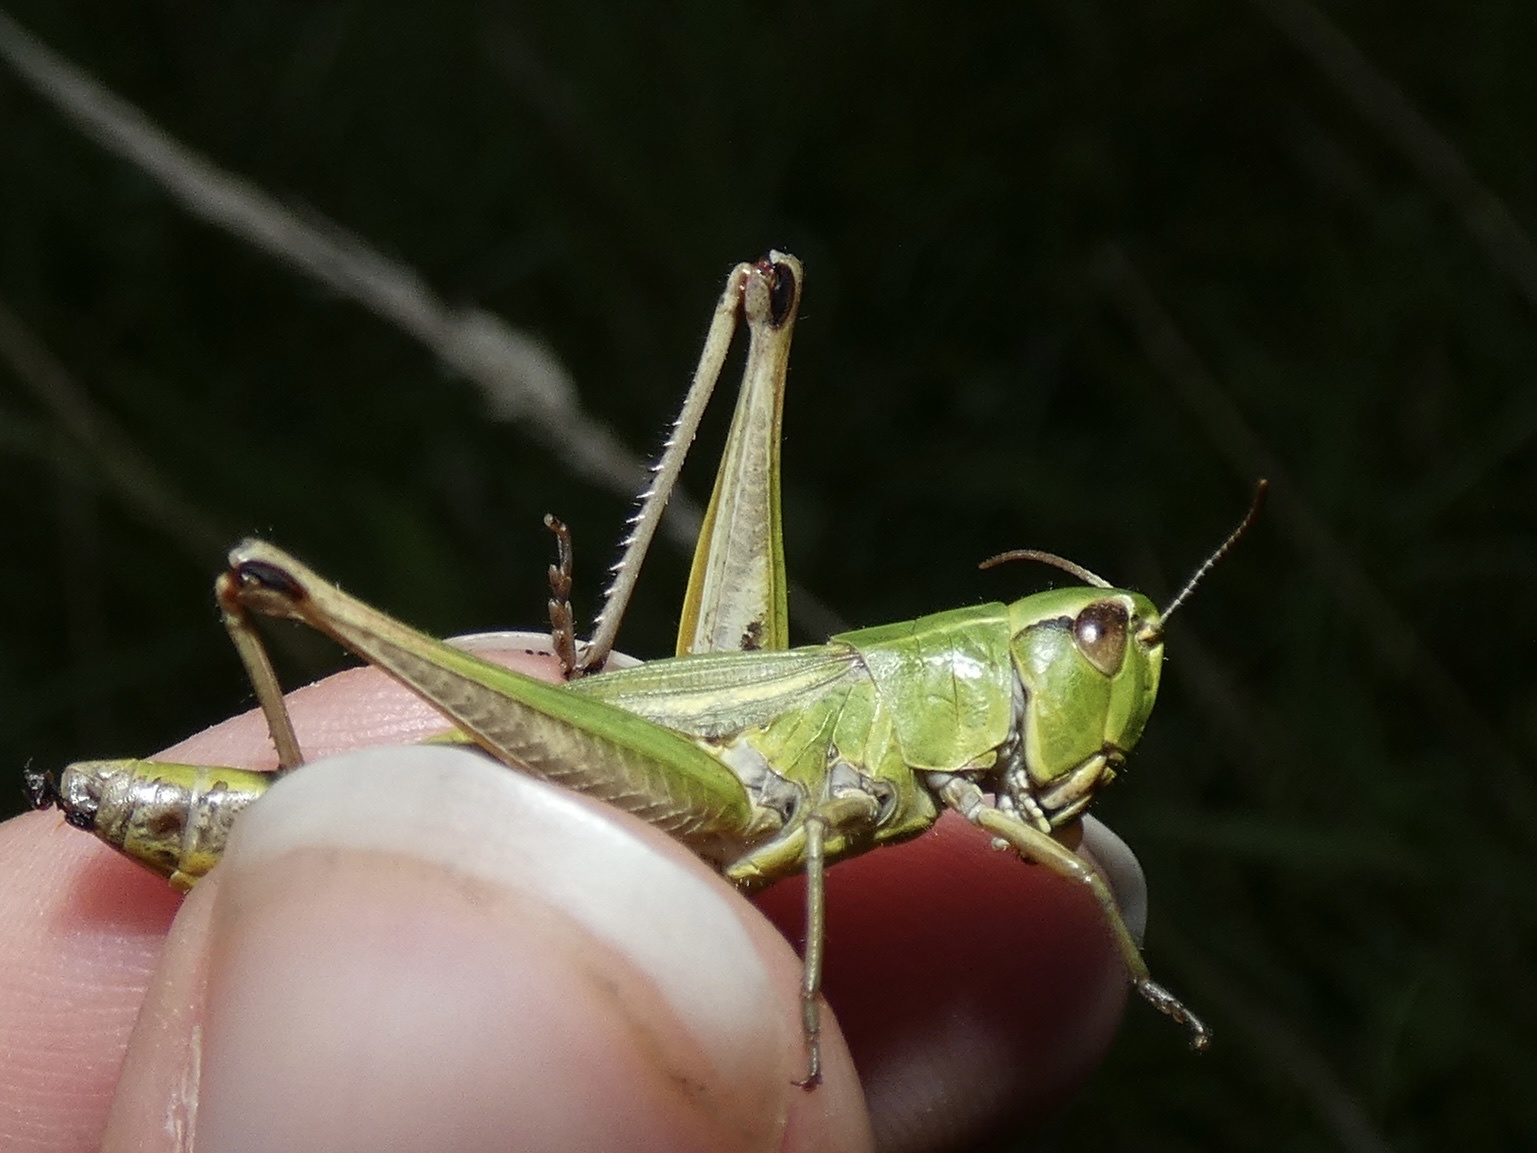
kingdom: Animalia
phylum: Arthropoda
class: Insecta
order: Orthoptera
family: Acrididae
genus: Pseudochorthippus
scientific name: Pseudochorthippus parallelus
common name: Meadow grasshopper
